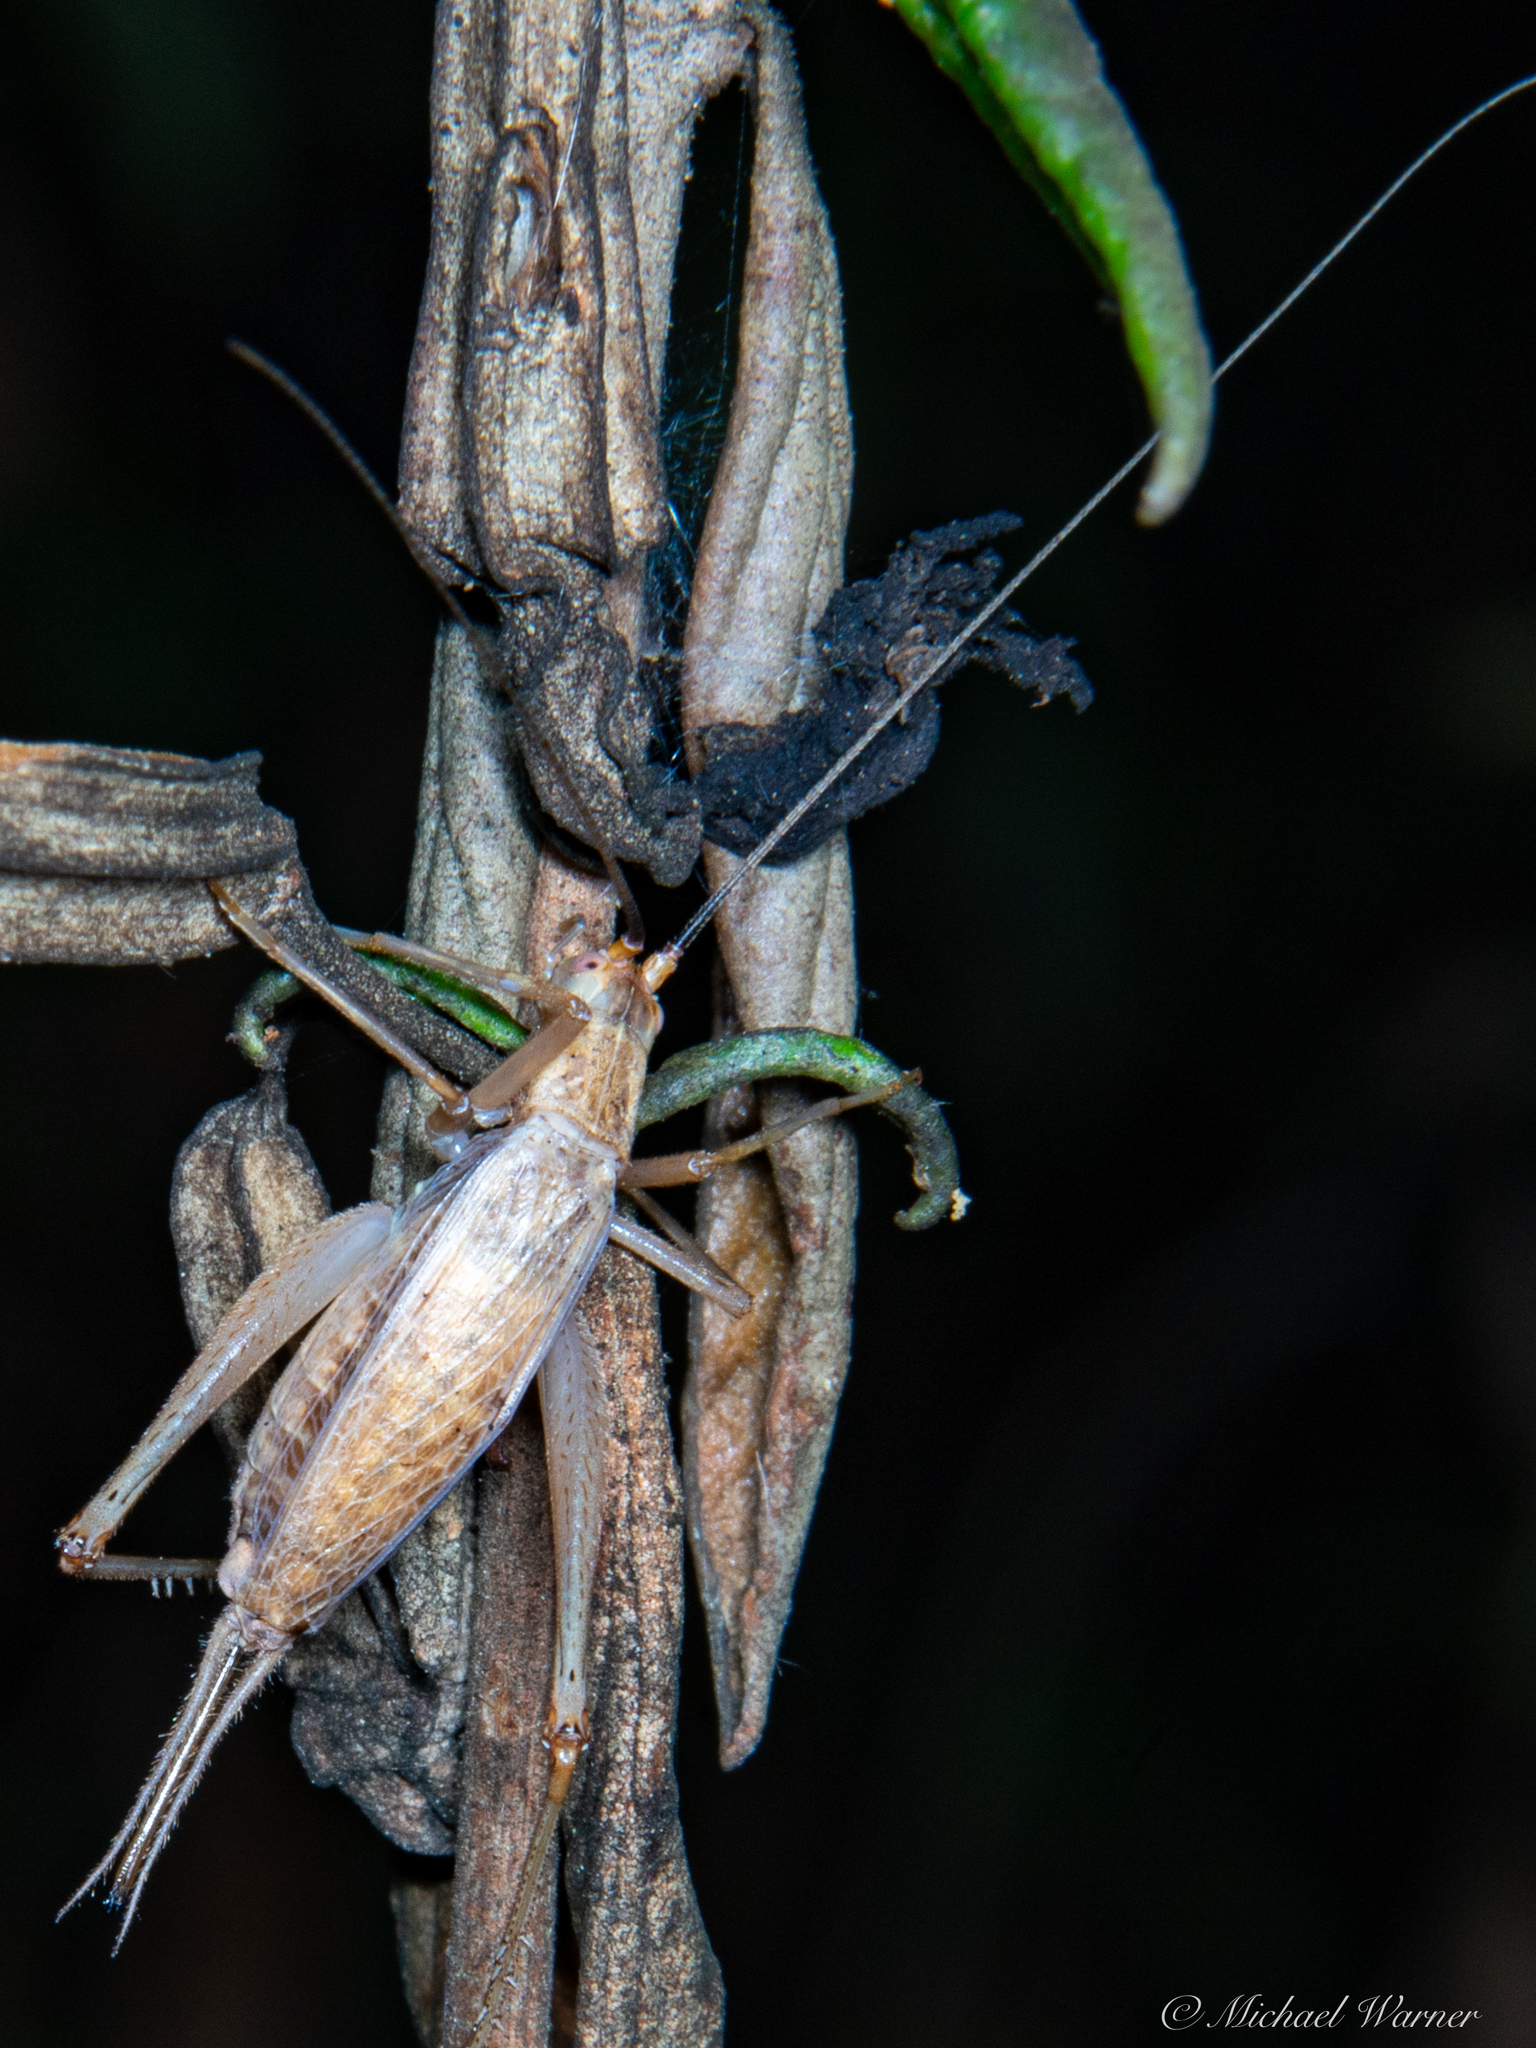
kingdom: Animalia
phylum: Arthropoda
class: Insecta
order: Orthoptera
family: Gryllidae
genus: Oecanthus
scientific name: Oecanthus californicus
